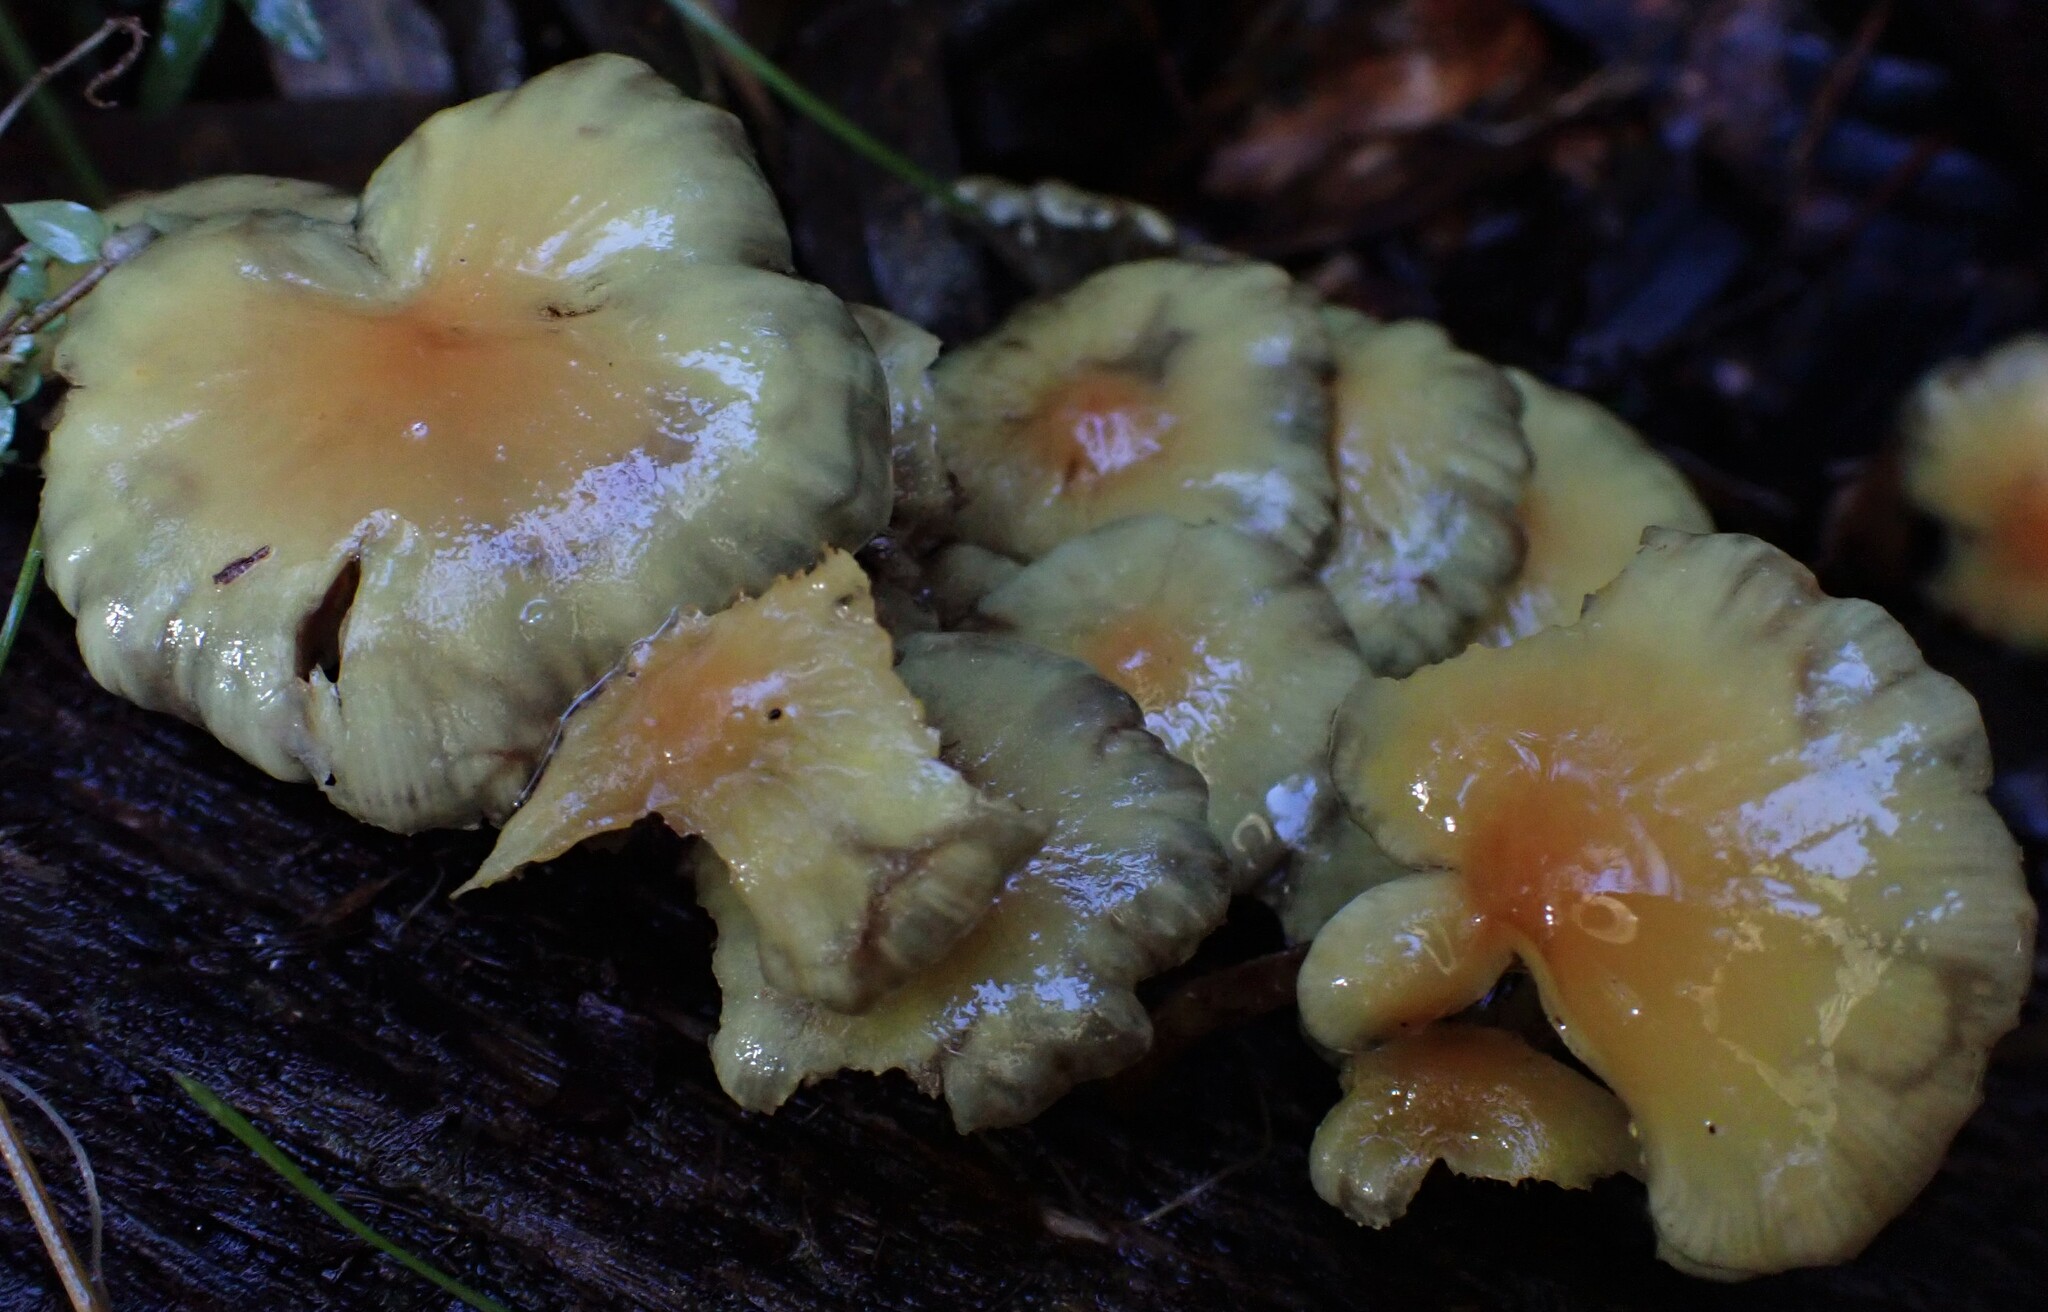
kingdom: Fungi
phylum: Basidiomycota
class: Agaricomycetes
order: Agaricales
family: Strophariaceae
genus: Hypholoma
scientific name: Hypholoma fasciculare
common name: Sulphur tuft
